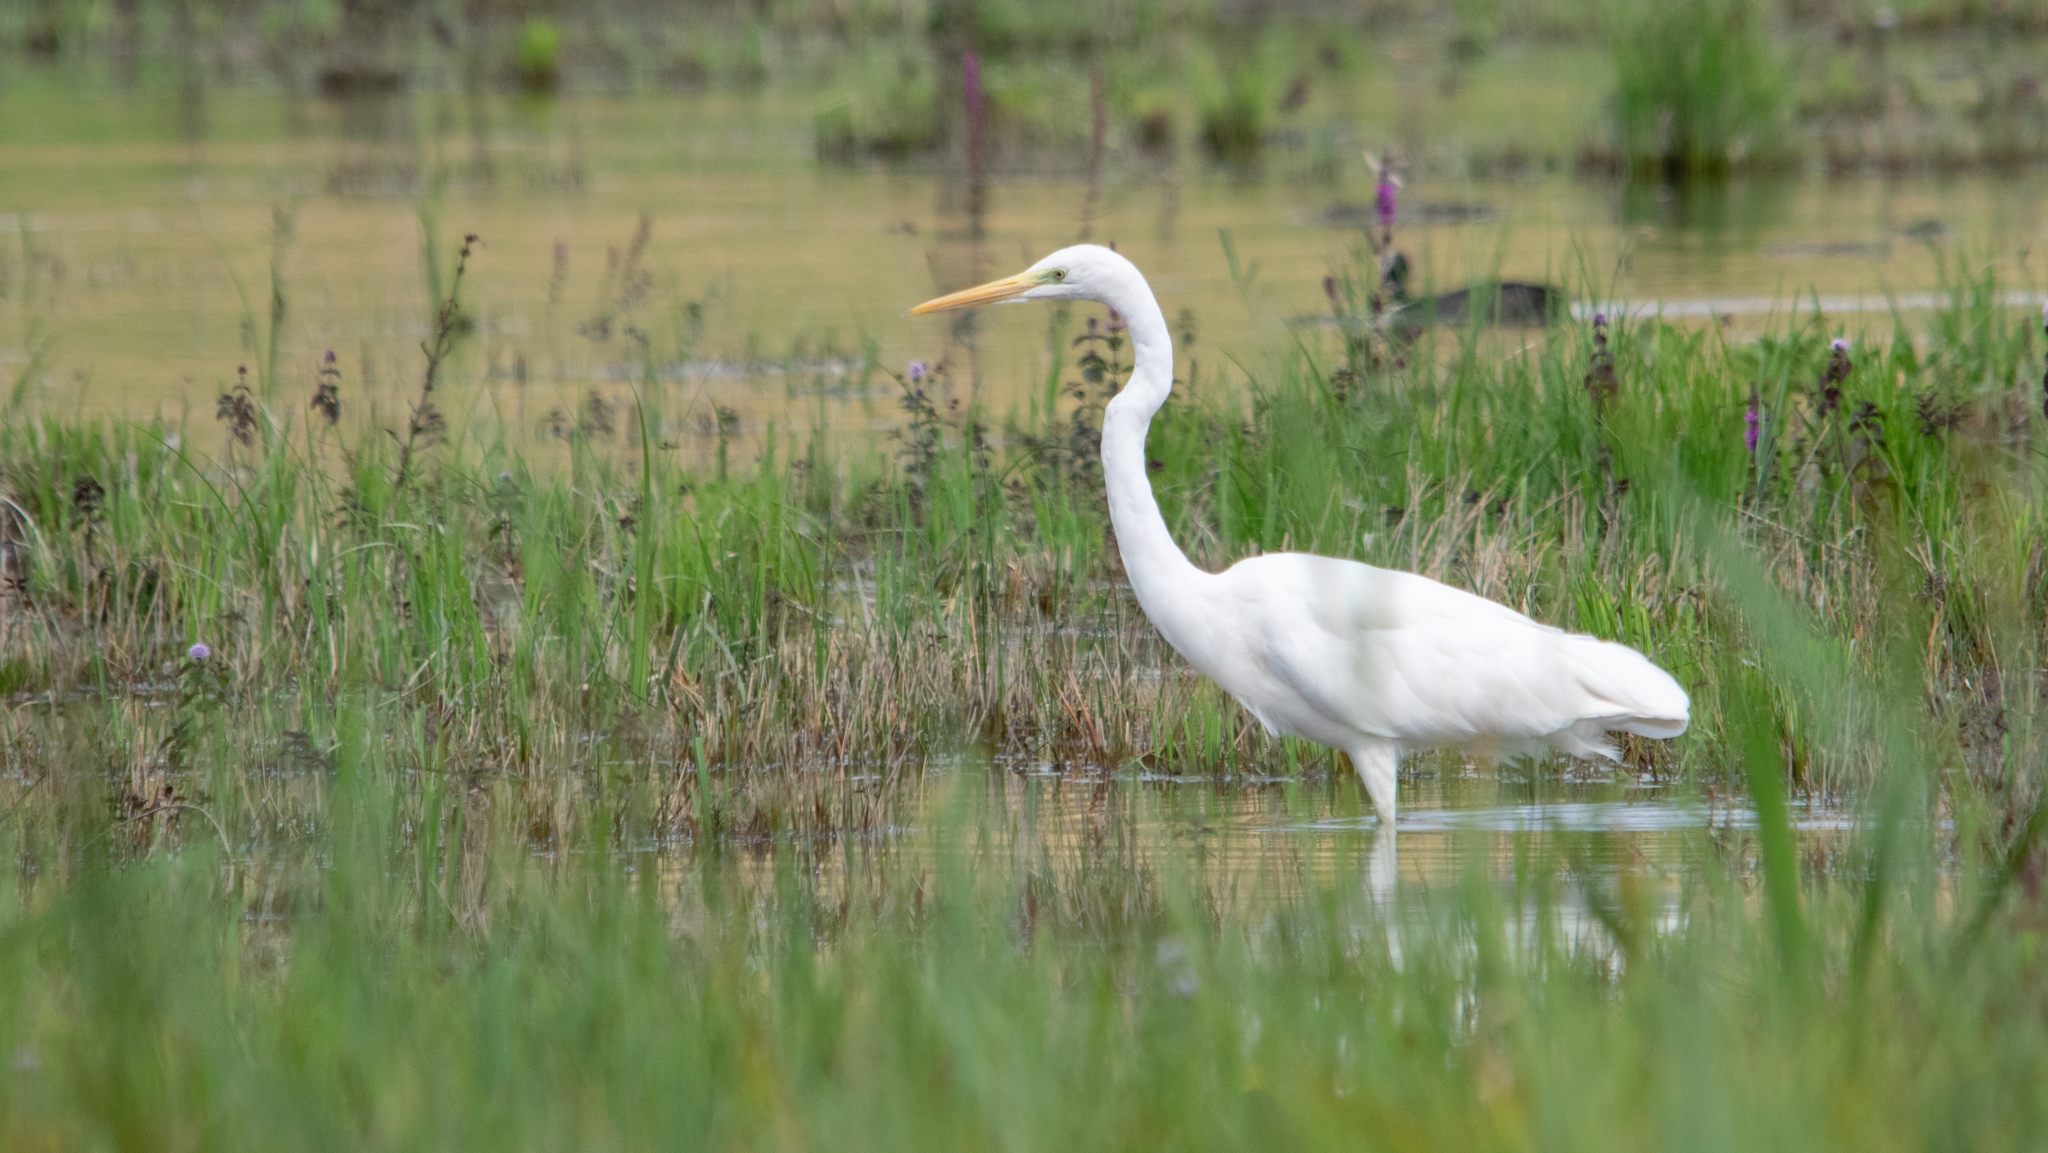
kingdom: Animalia
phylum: Chordata
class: Aves
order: Pelecaniformes
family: Ardeidae
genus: Ardea
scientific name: Ardea alba
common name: Great egret
